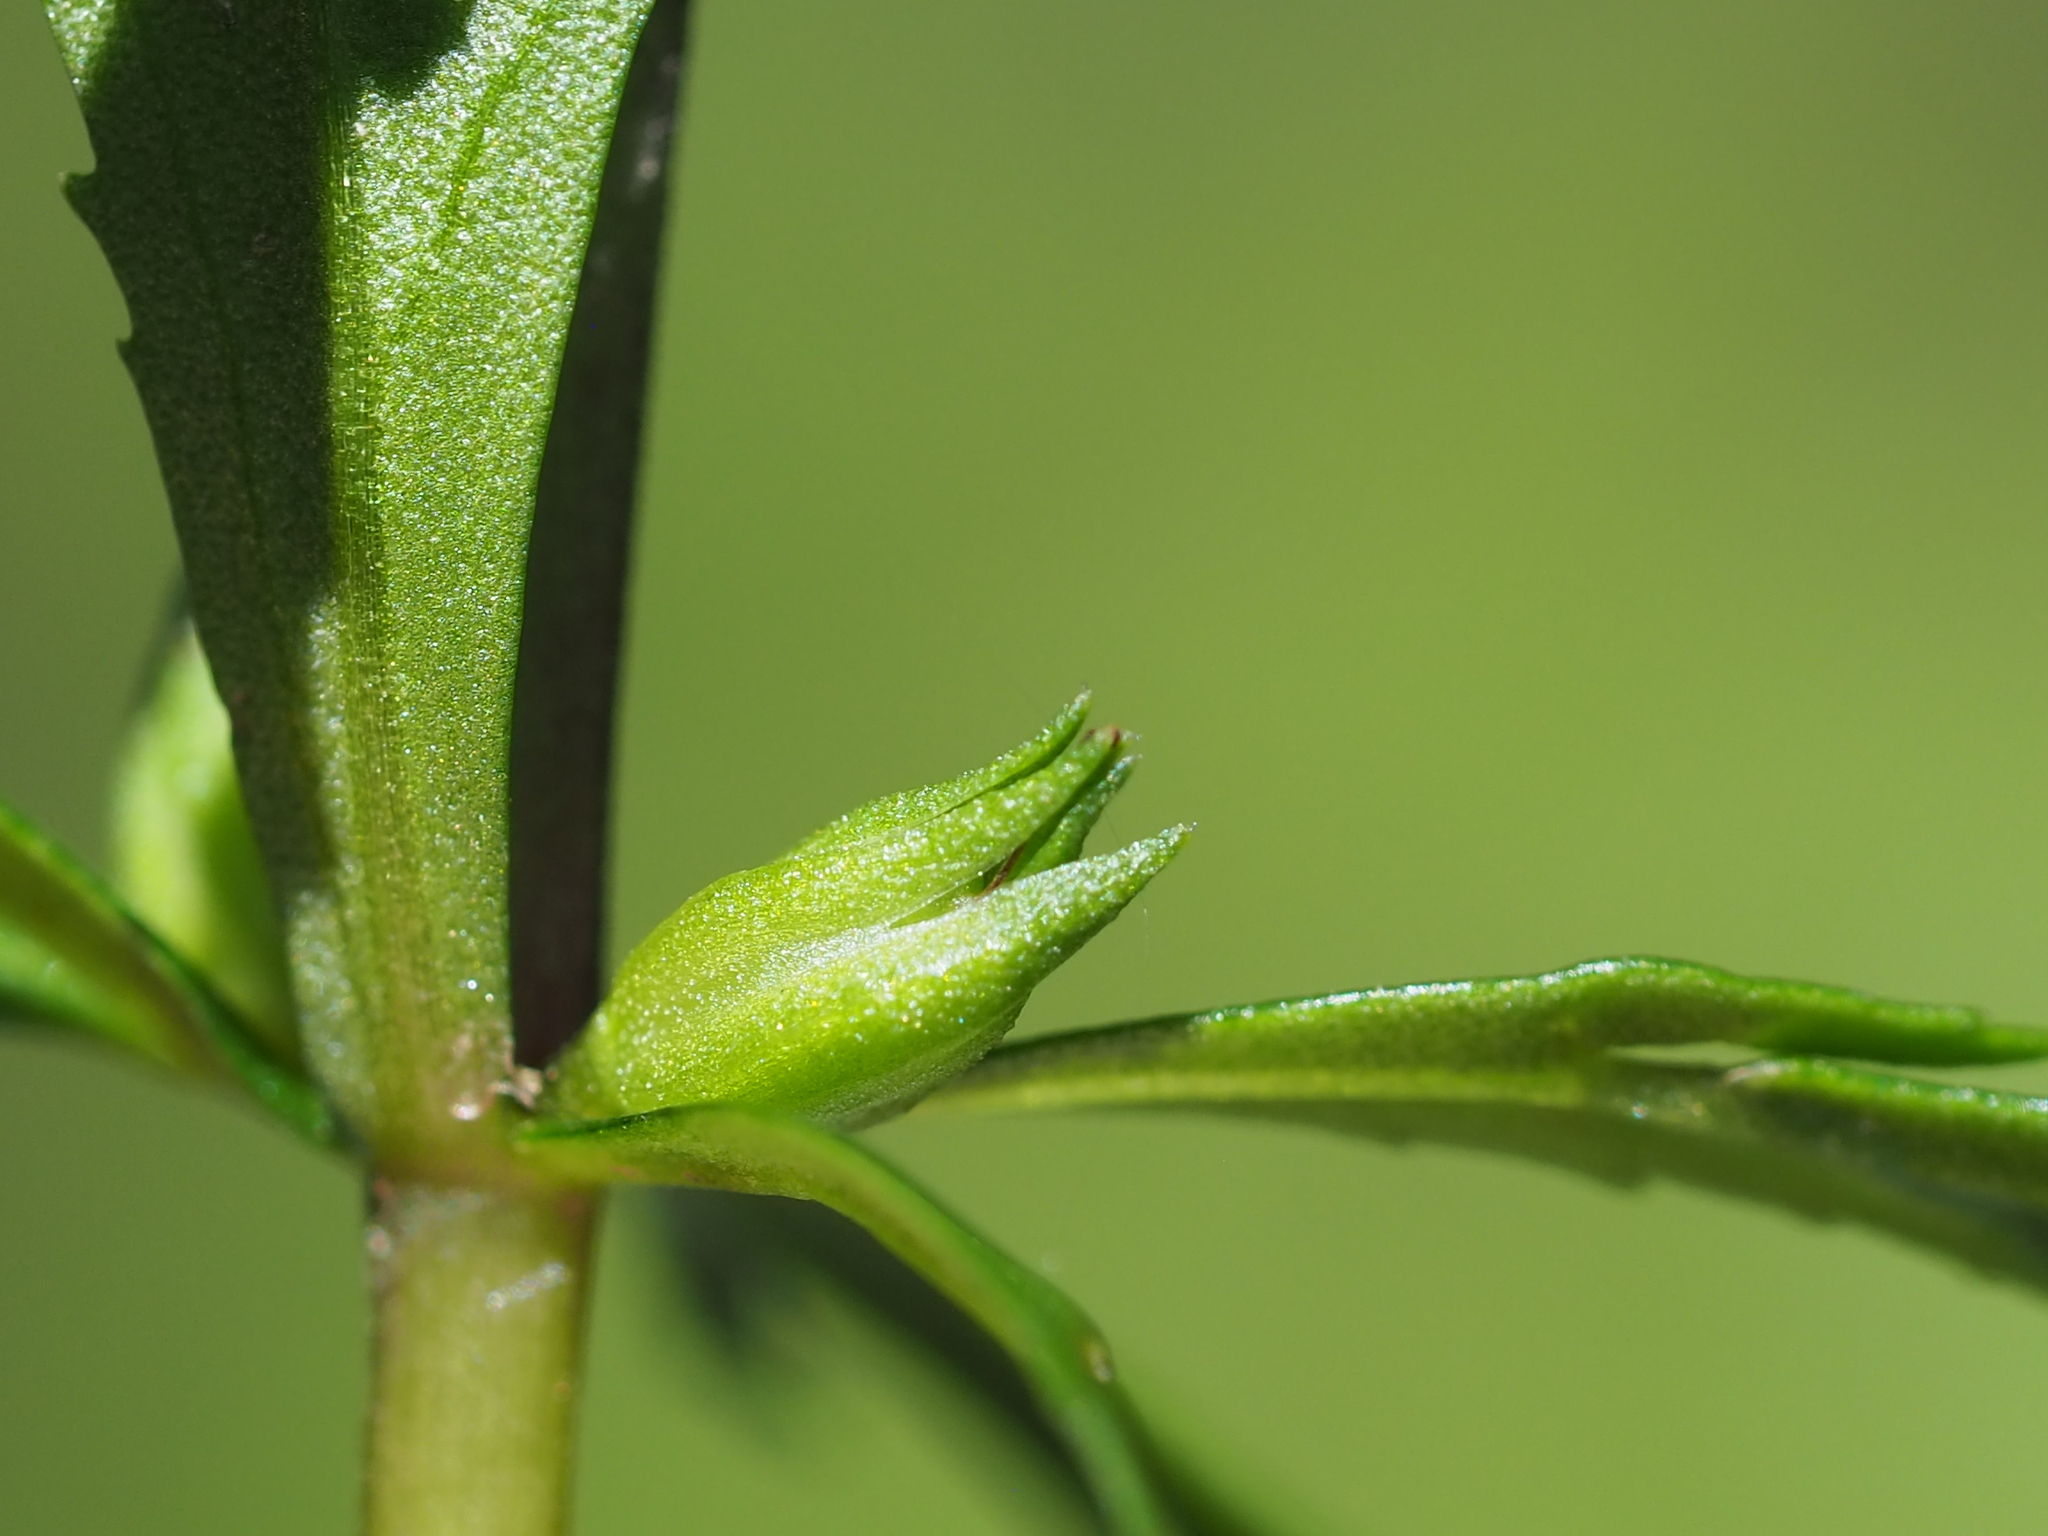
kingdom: Plantae
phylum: Tracheophyta
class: Magnoliopsida
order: Lamiales
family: Plantaginaceae
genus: Limnophila
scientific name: Limnophila indica
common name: Indian marshweed
